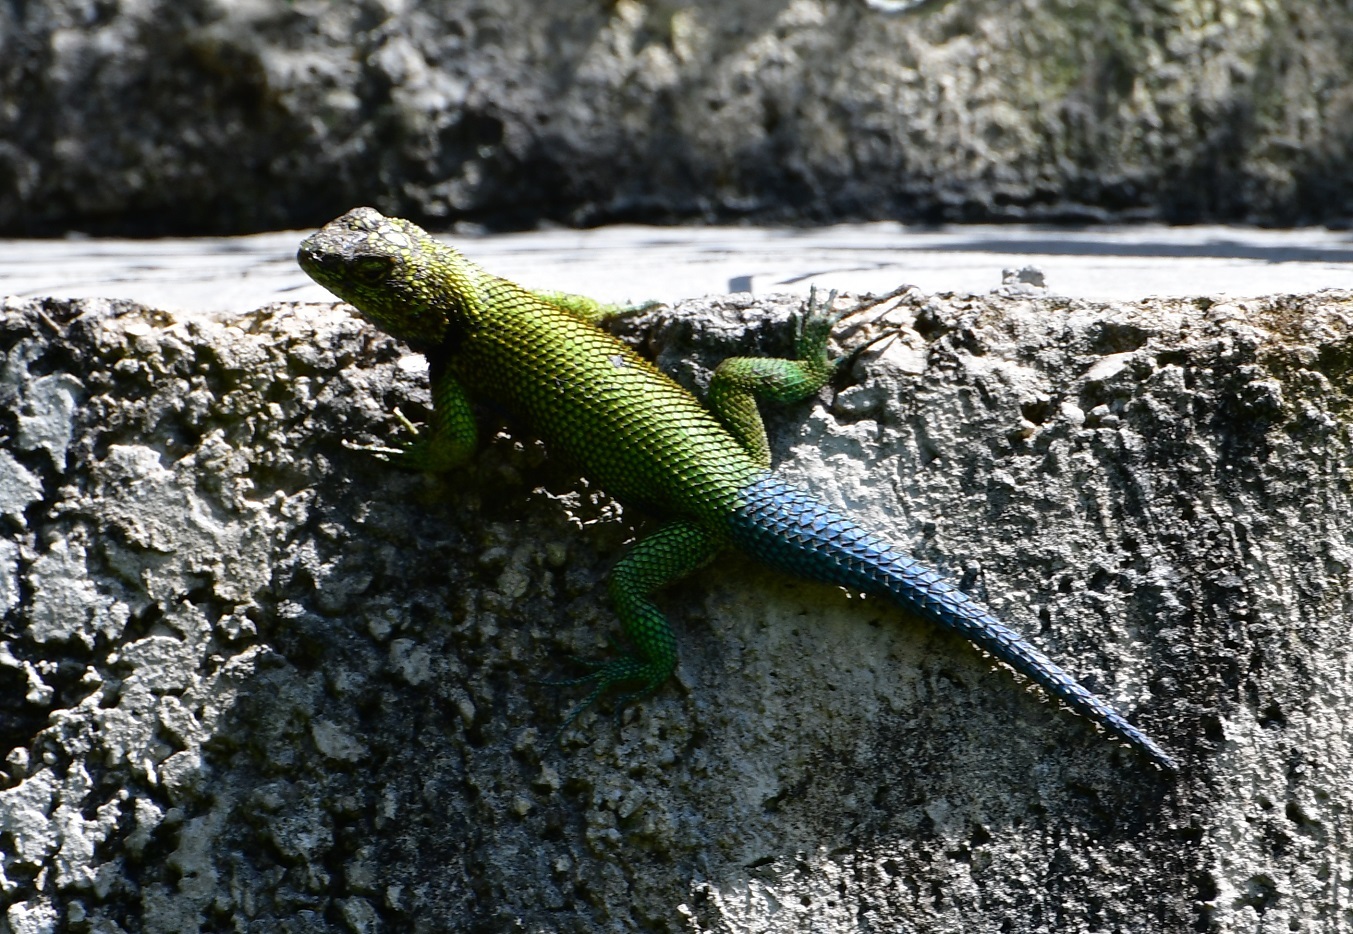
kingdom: Animalia
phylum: Chordata
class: Squamata
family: Phrynosomatidae
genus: Sceloporus
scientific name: Sceloporus taeniocnemis
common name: Guatemalan emerald spiny lizard
